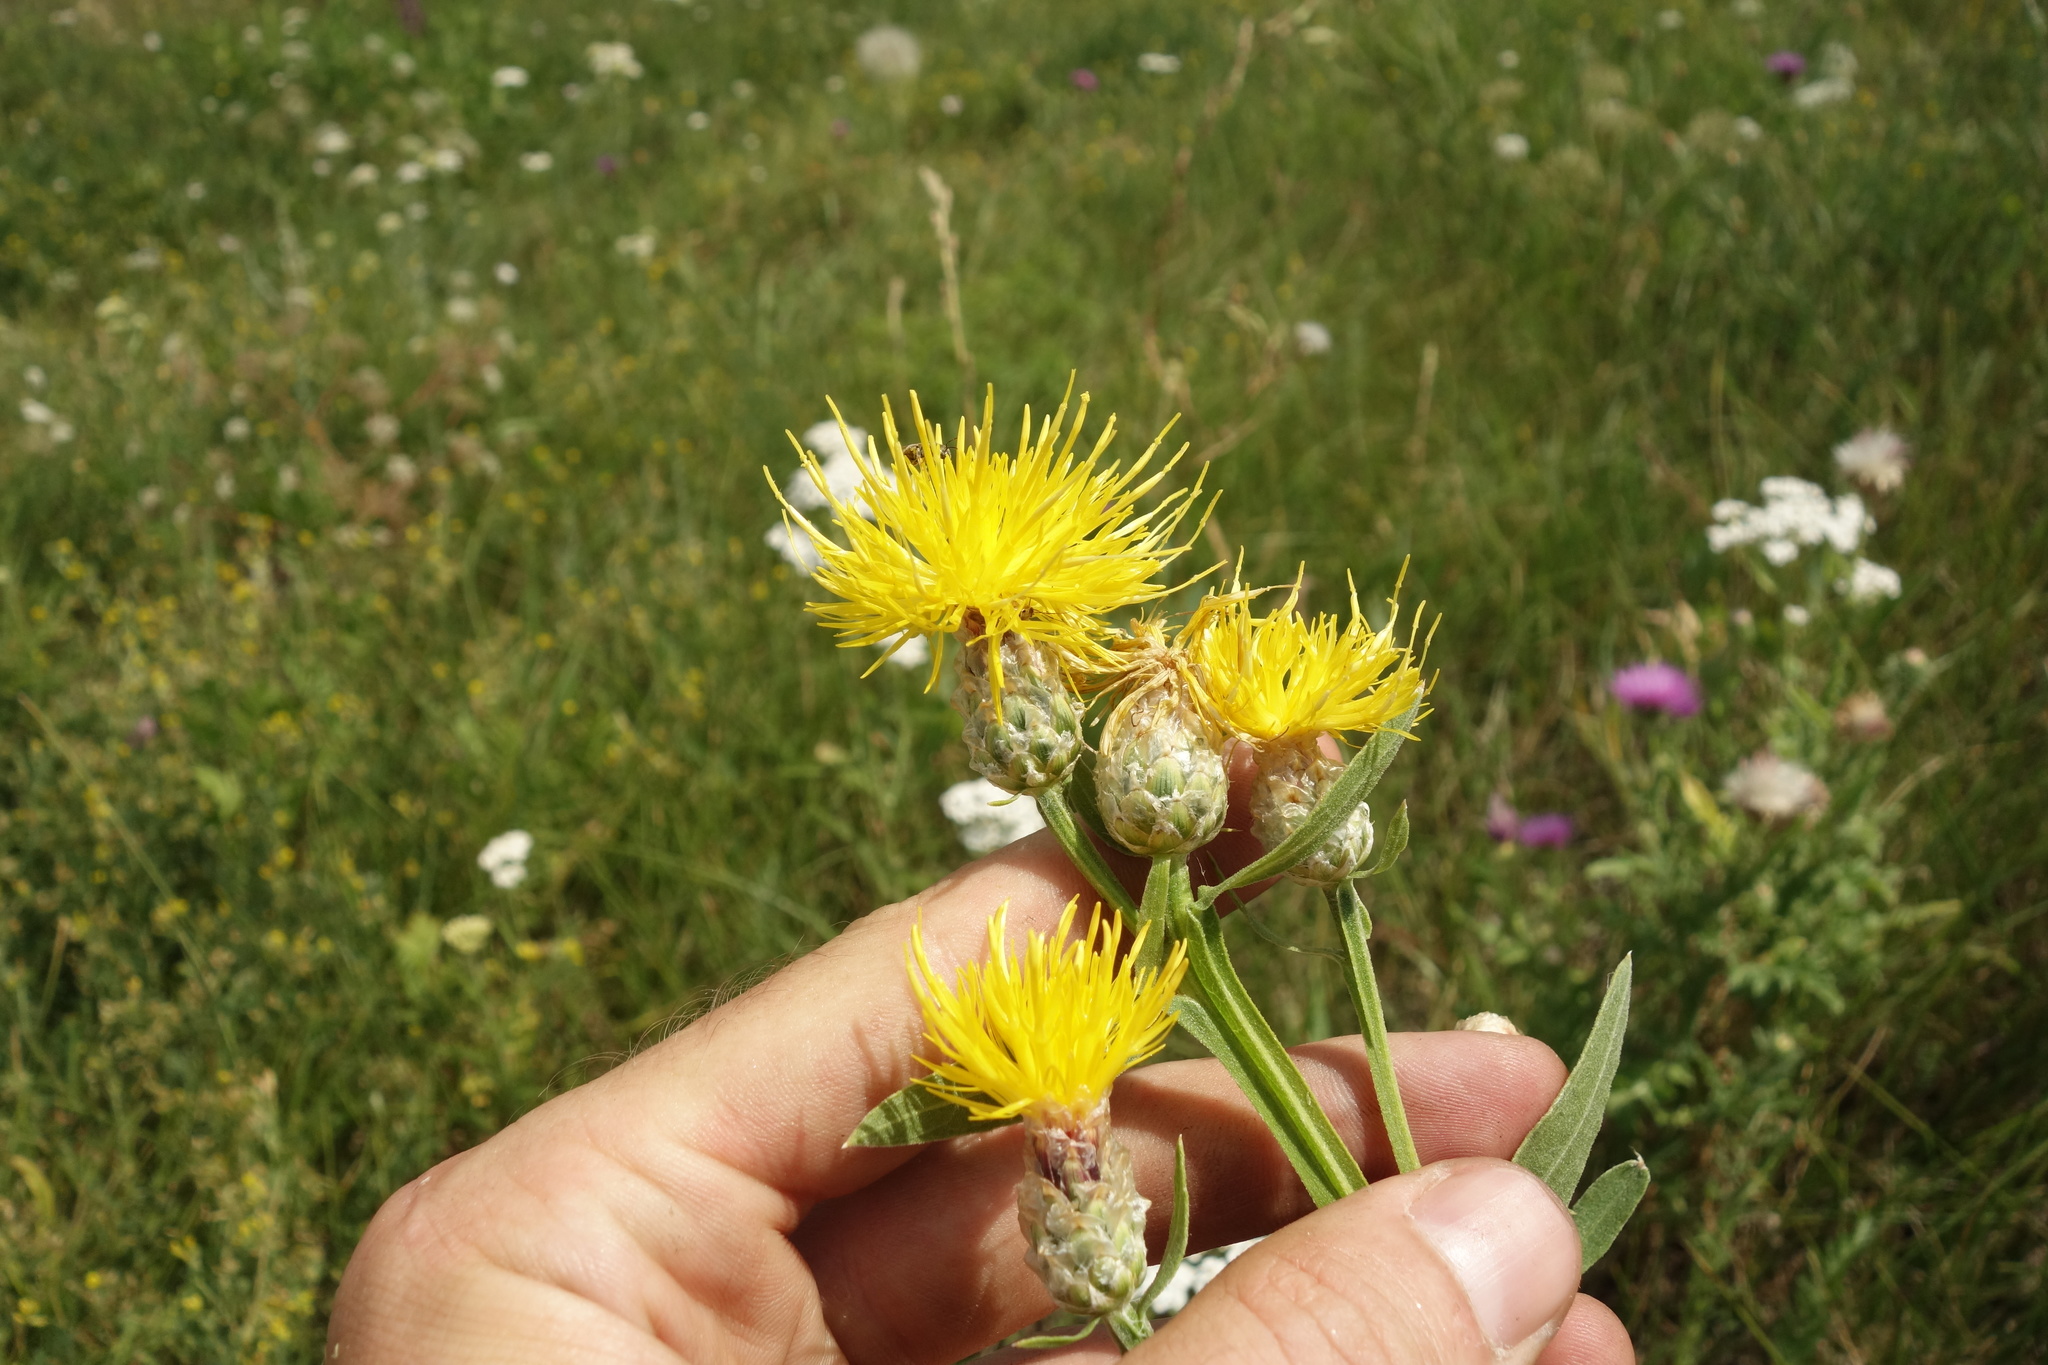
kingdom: Plantae
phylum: Tracheophyta
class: Magnoliopsida
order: Asterales
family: Asteraceae
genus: Centaurea
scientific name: Centaurea glastifolia
